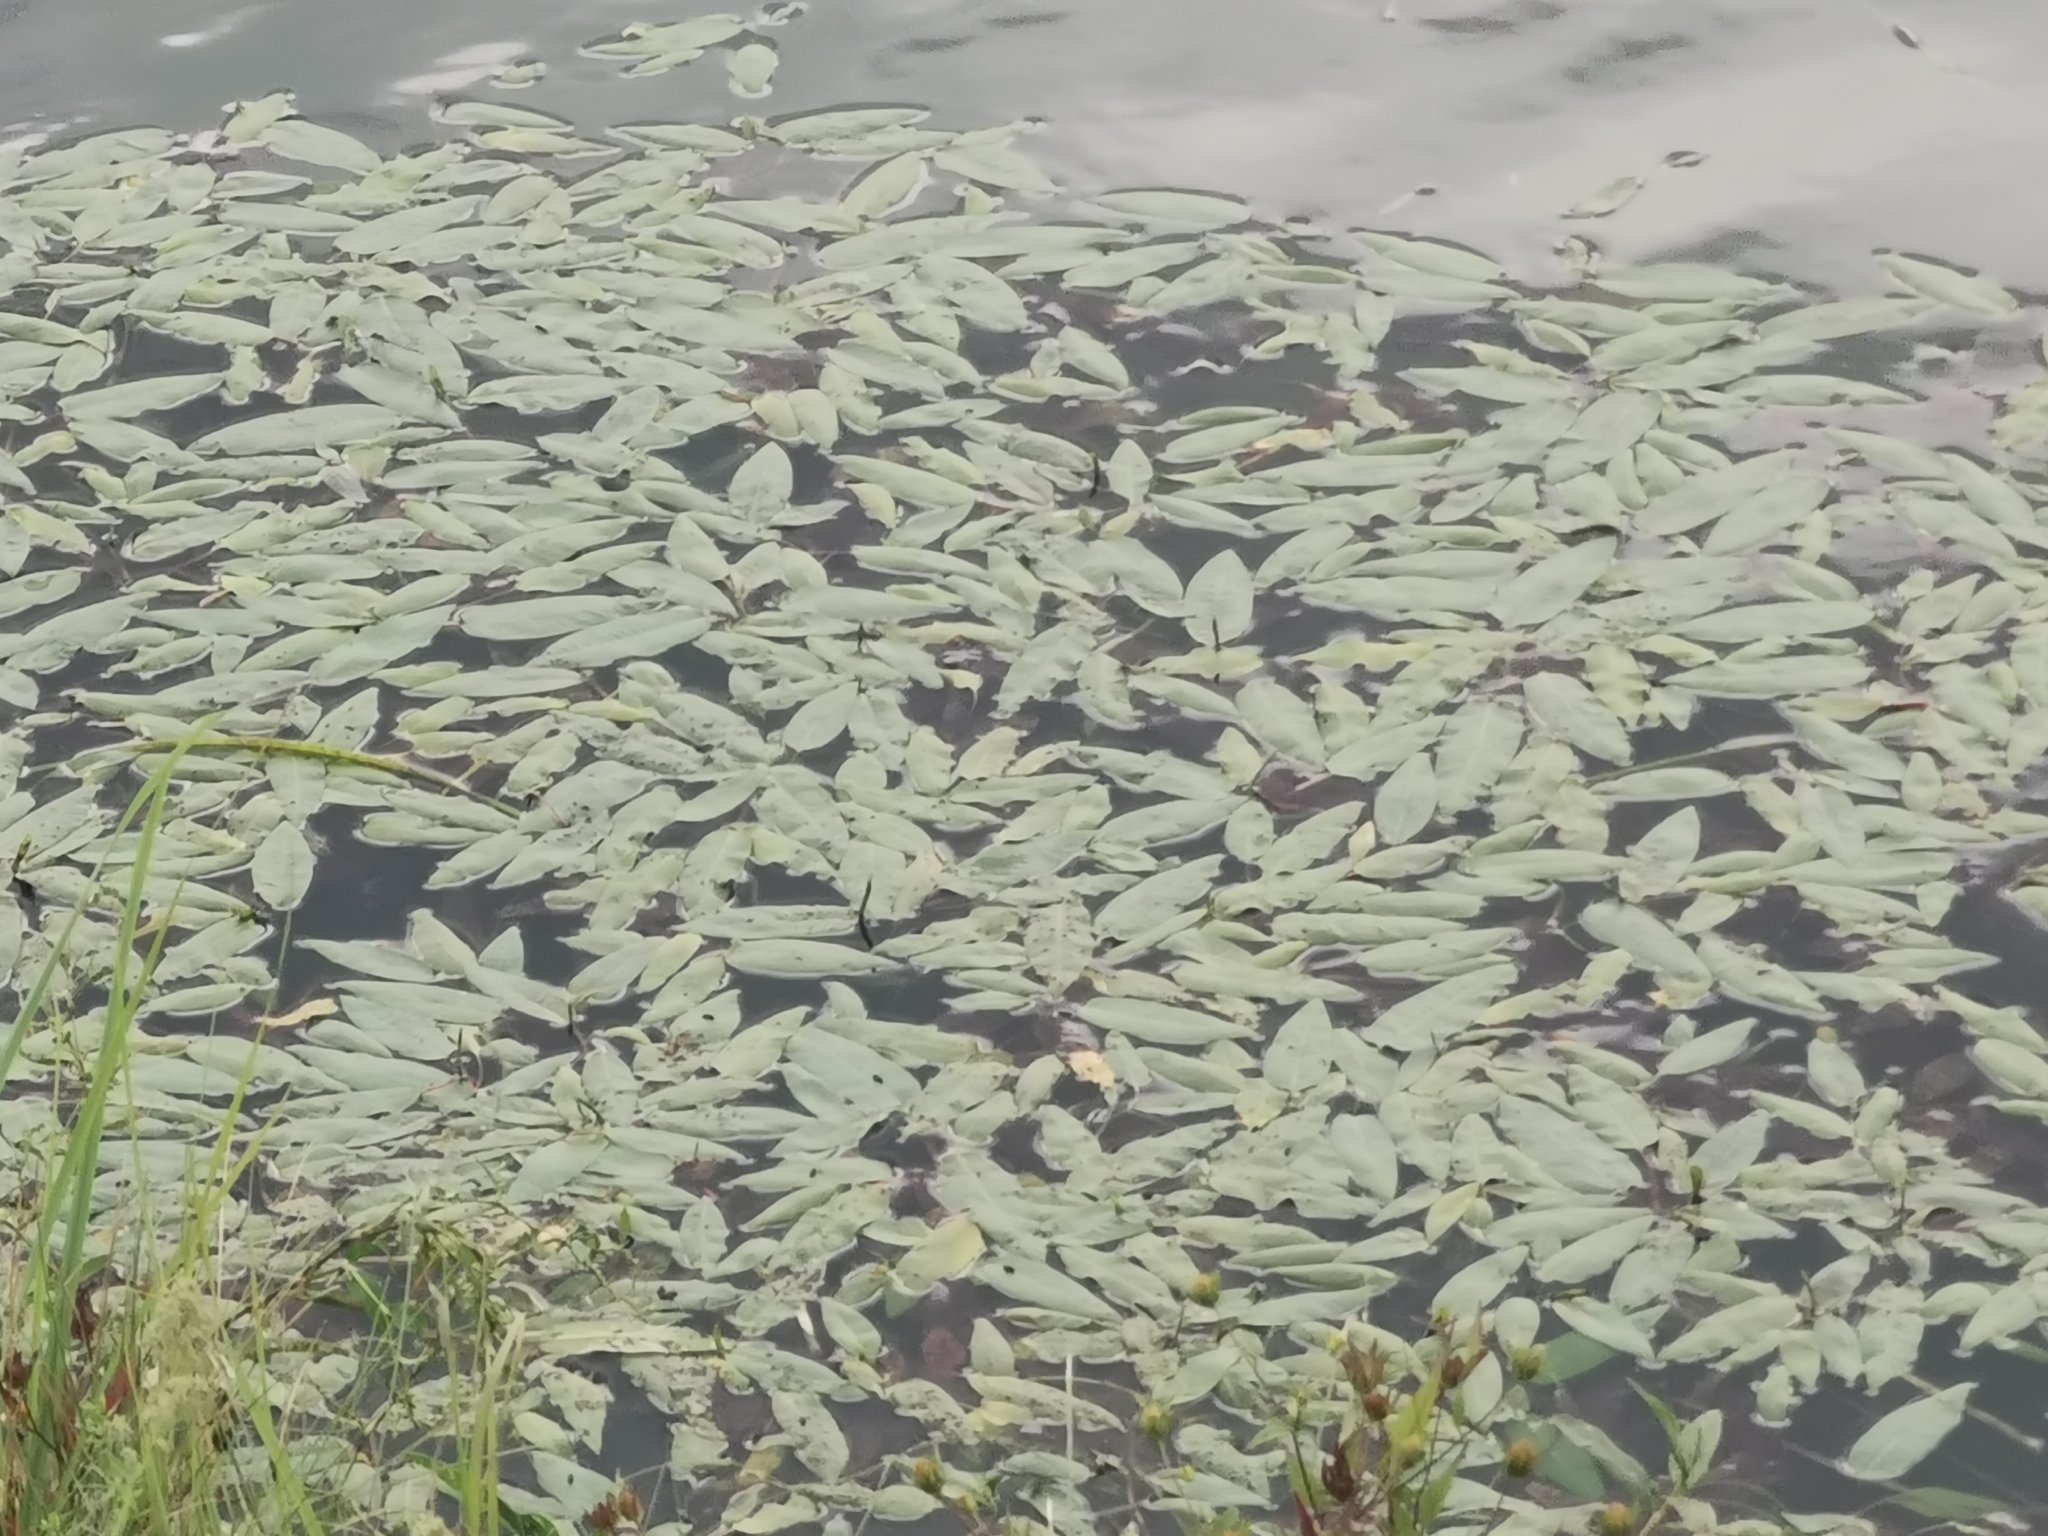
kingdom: Plantae
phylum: Tracheophyta
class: Magnoliopsida
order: Caryophyllales
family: Polygonaceae
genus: Persicaria
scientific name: Persicaria amphibia
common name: Amphibious bistort
